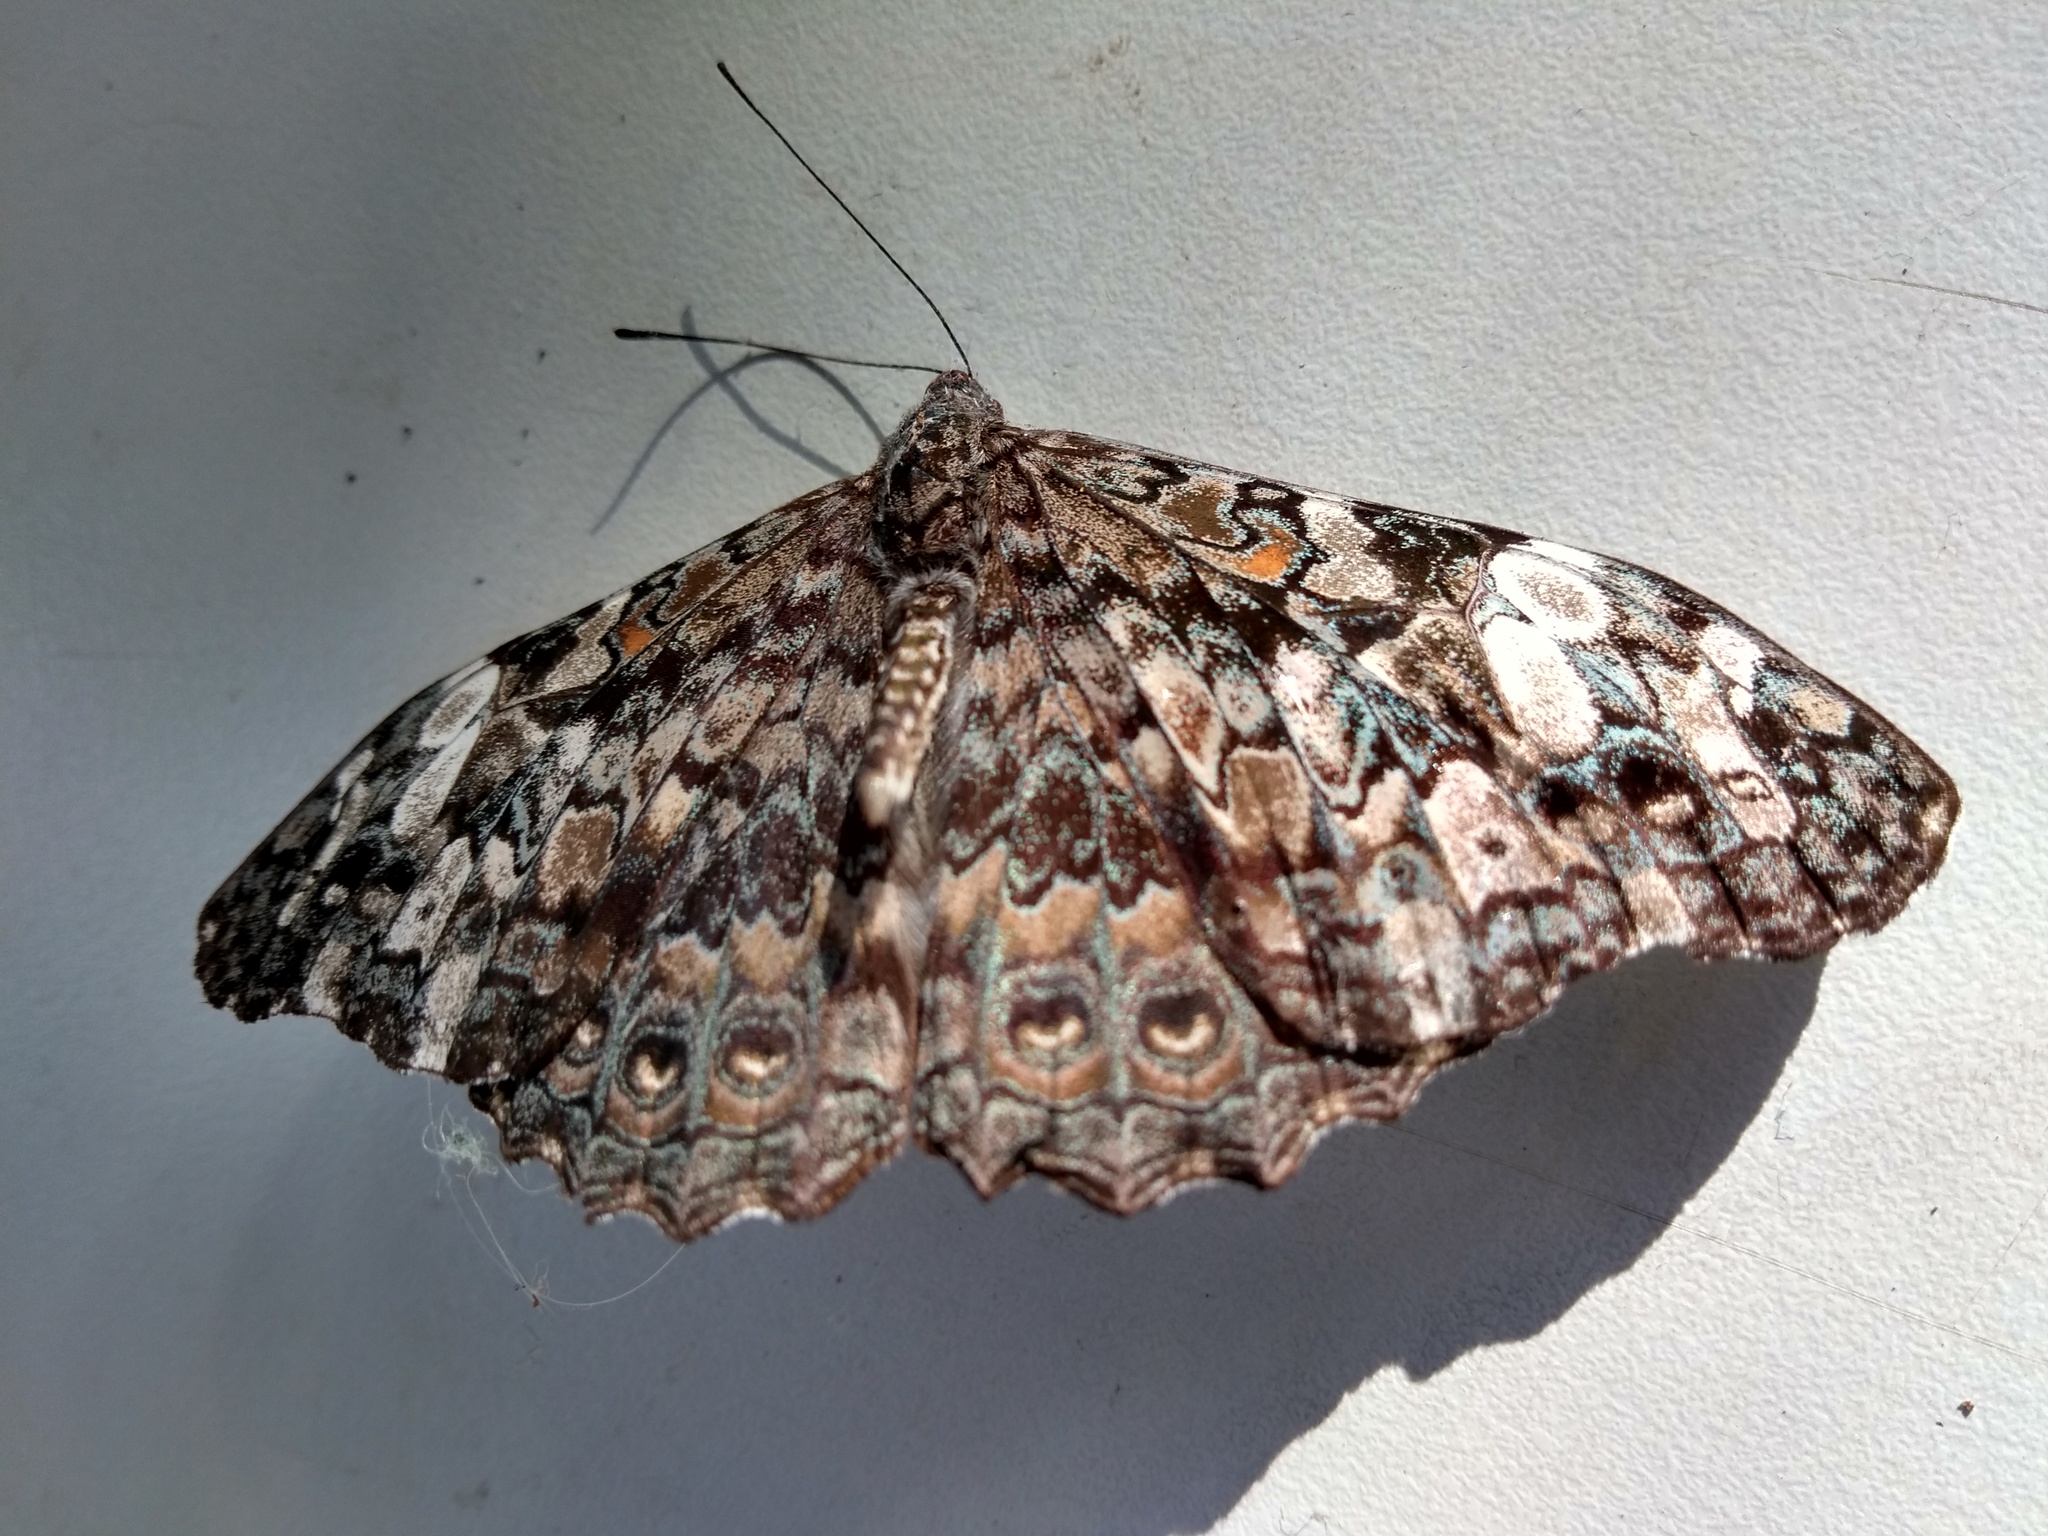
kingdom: Animalia
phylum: Arthropoda
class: Insecta
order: Lepidoptera
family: Nymphalidae
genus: Hamadryas
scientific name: Hamadryas epinome
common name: Epinome cracker
